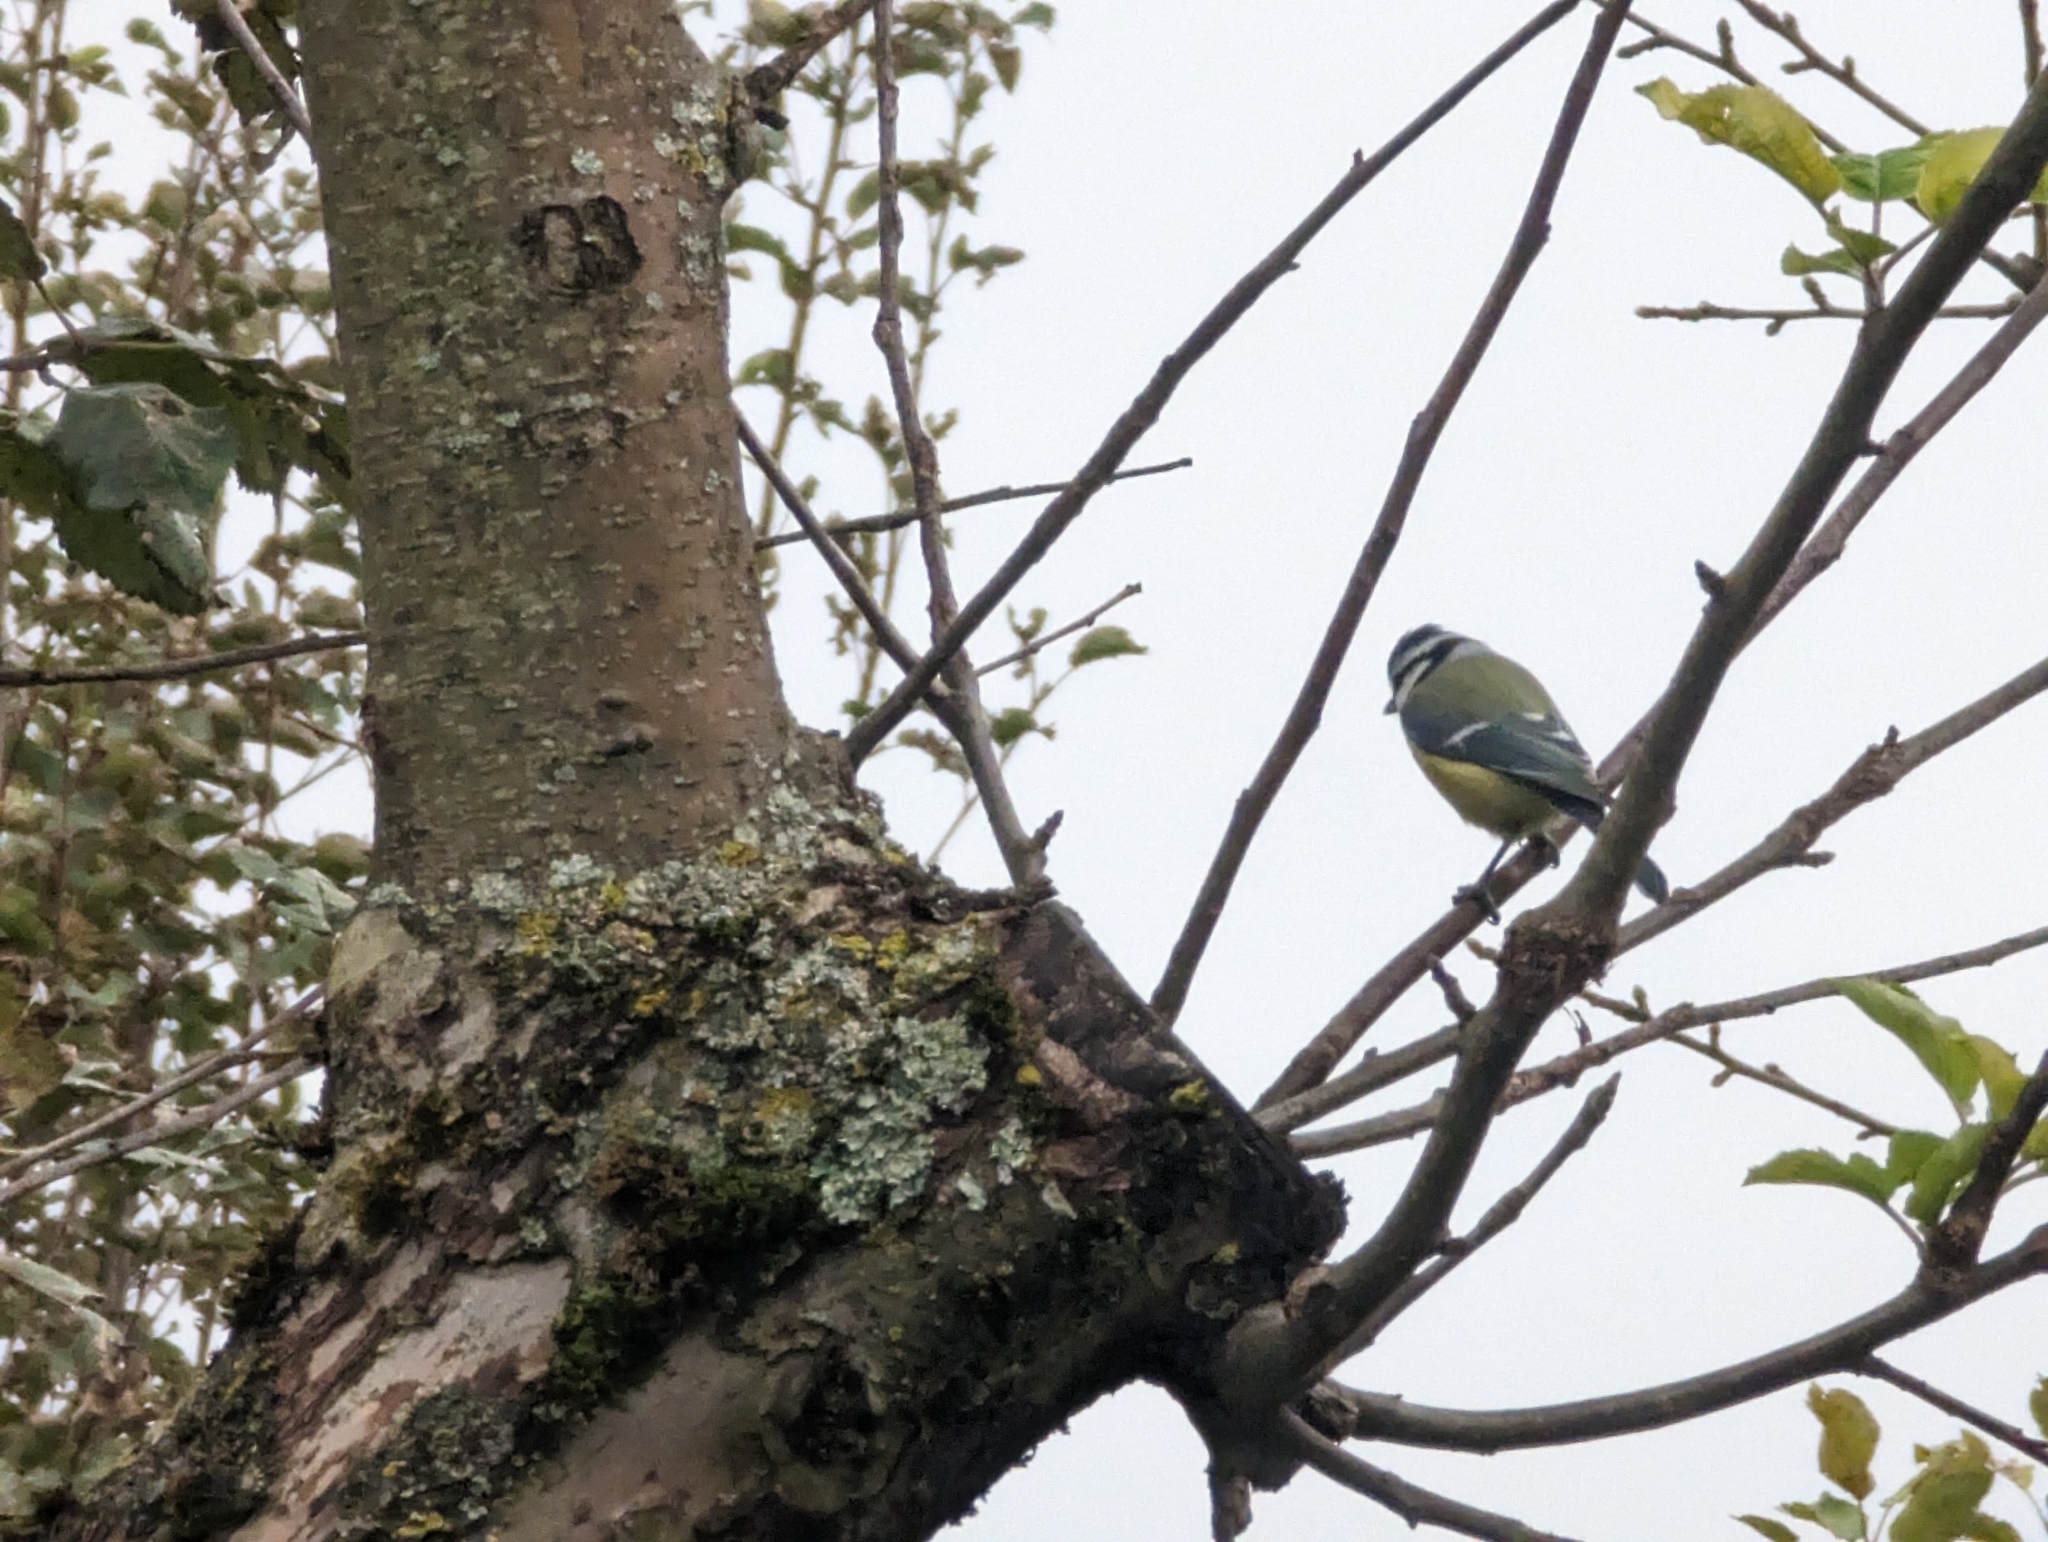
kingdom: Animalia
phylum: Chordata
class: Aves
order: Passeriformes
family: Paridae
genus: Cyanistes
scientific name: Cyanistes caeruleus
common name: Eurasian blue tit
